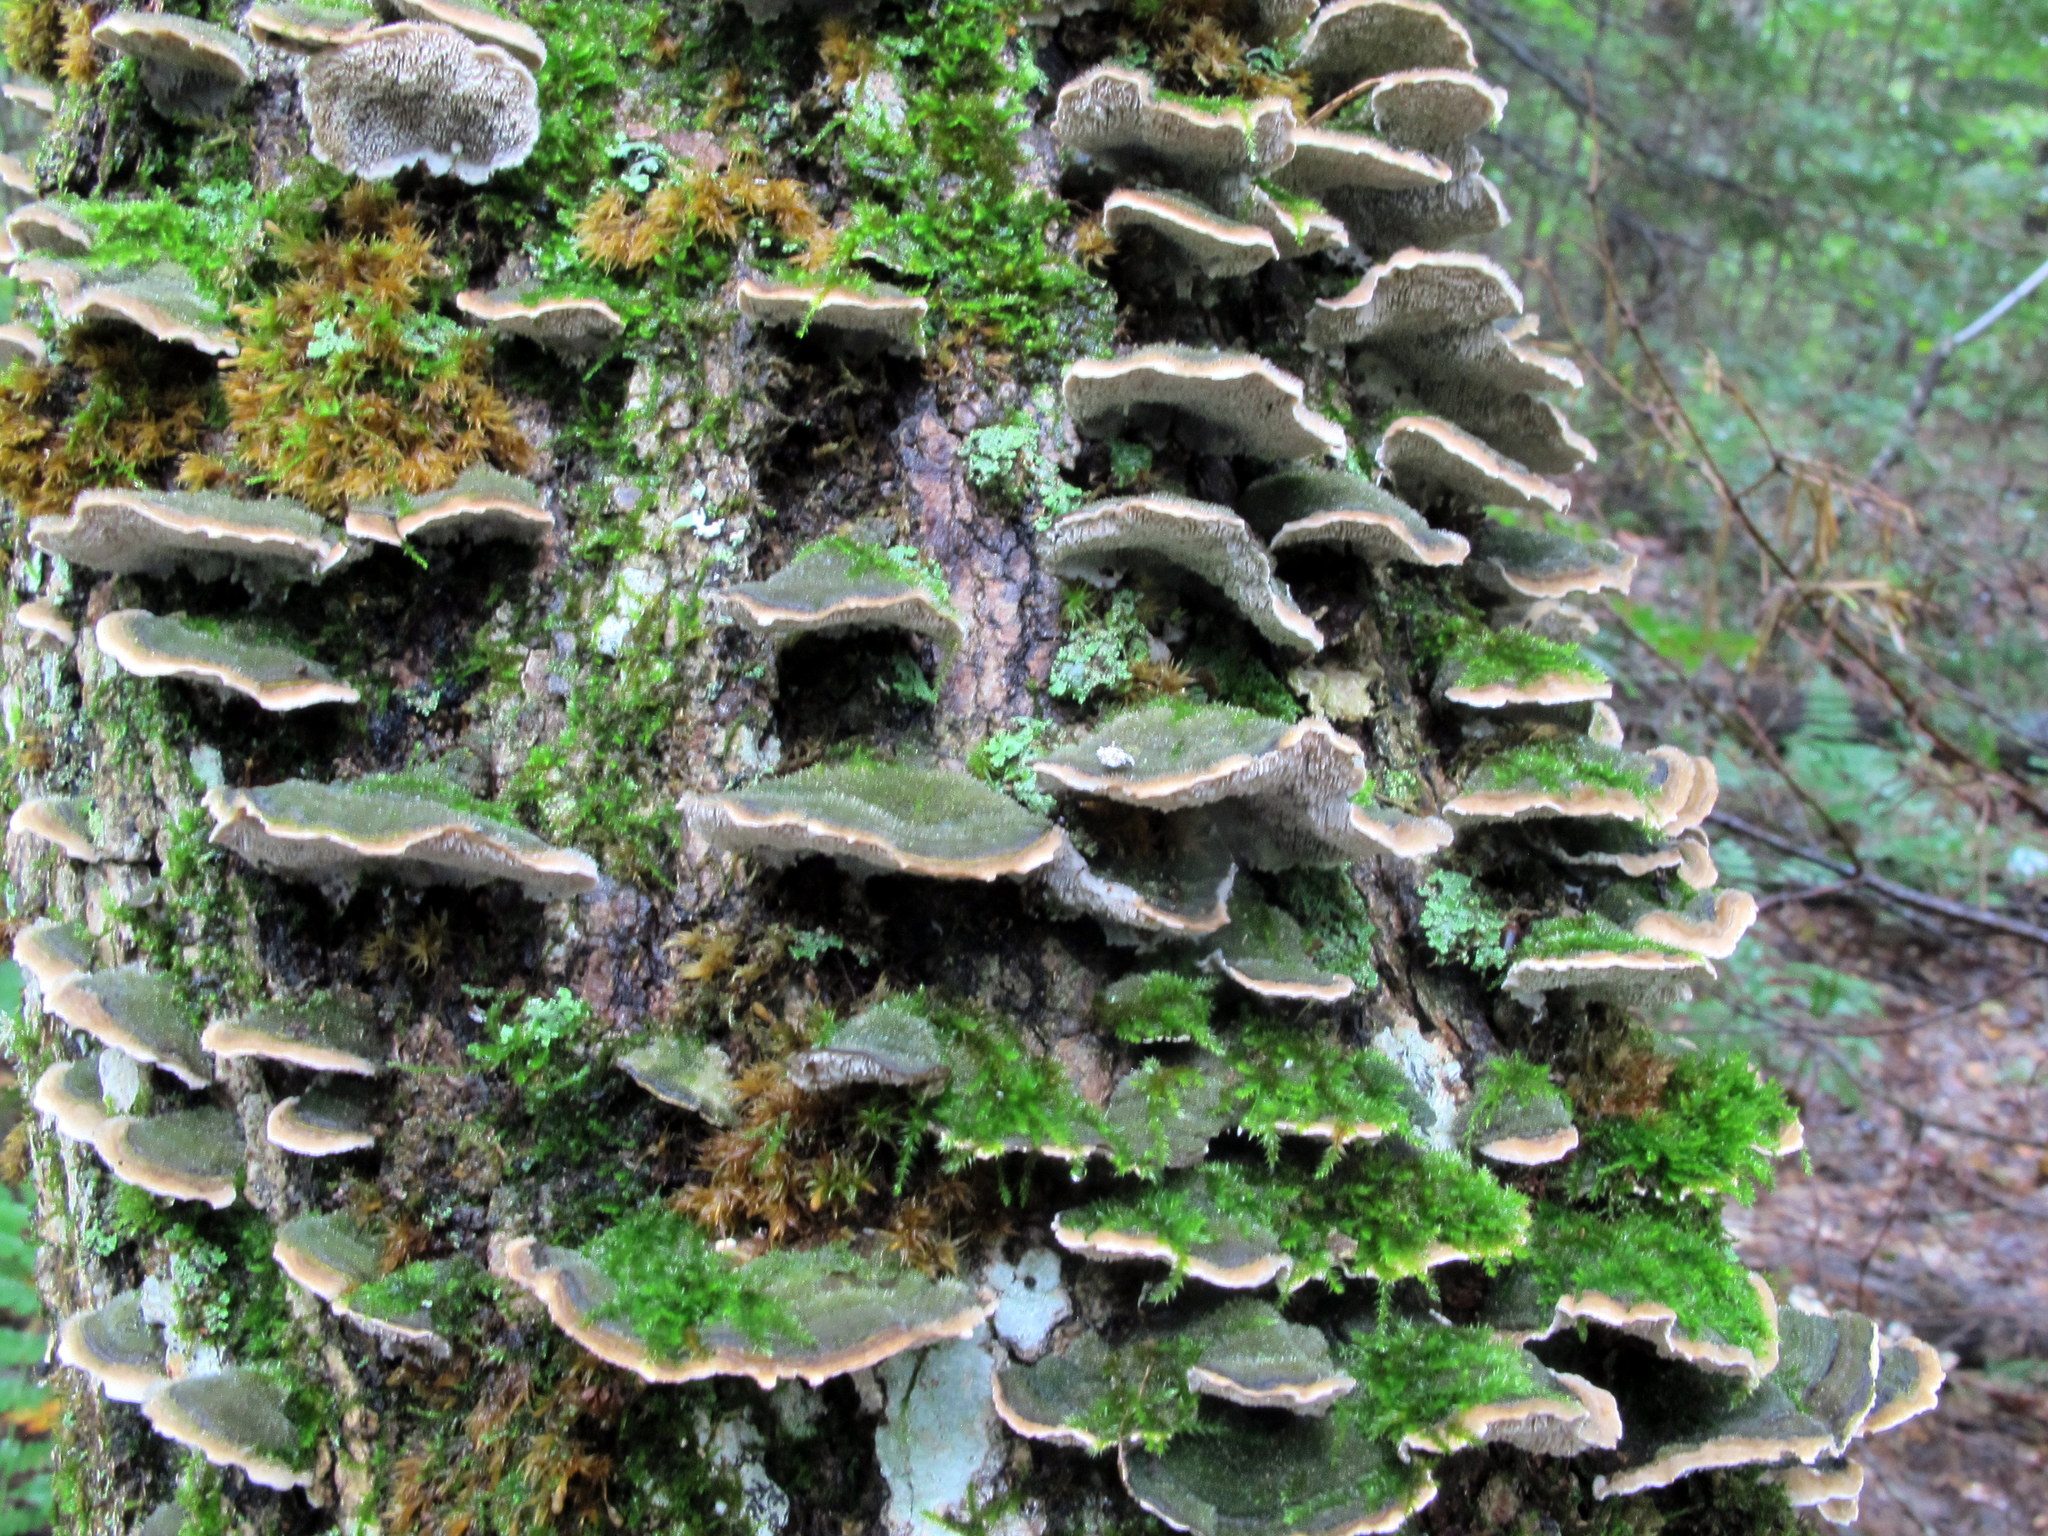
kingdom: Fungi
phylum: Basidiomycota
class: Agaricomycetes
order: Polyporales
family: Cerrenaceae
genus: Cerrena
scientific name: Cerrena unicolor
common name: Mossy maze polypore
